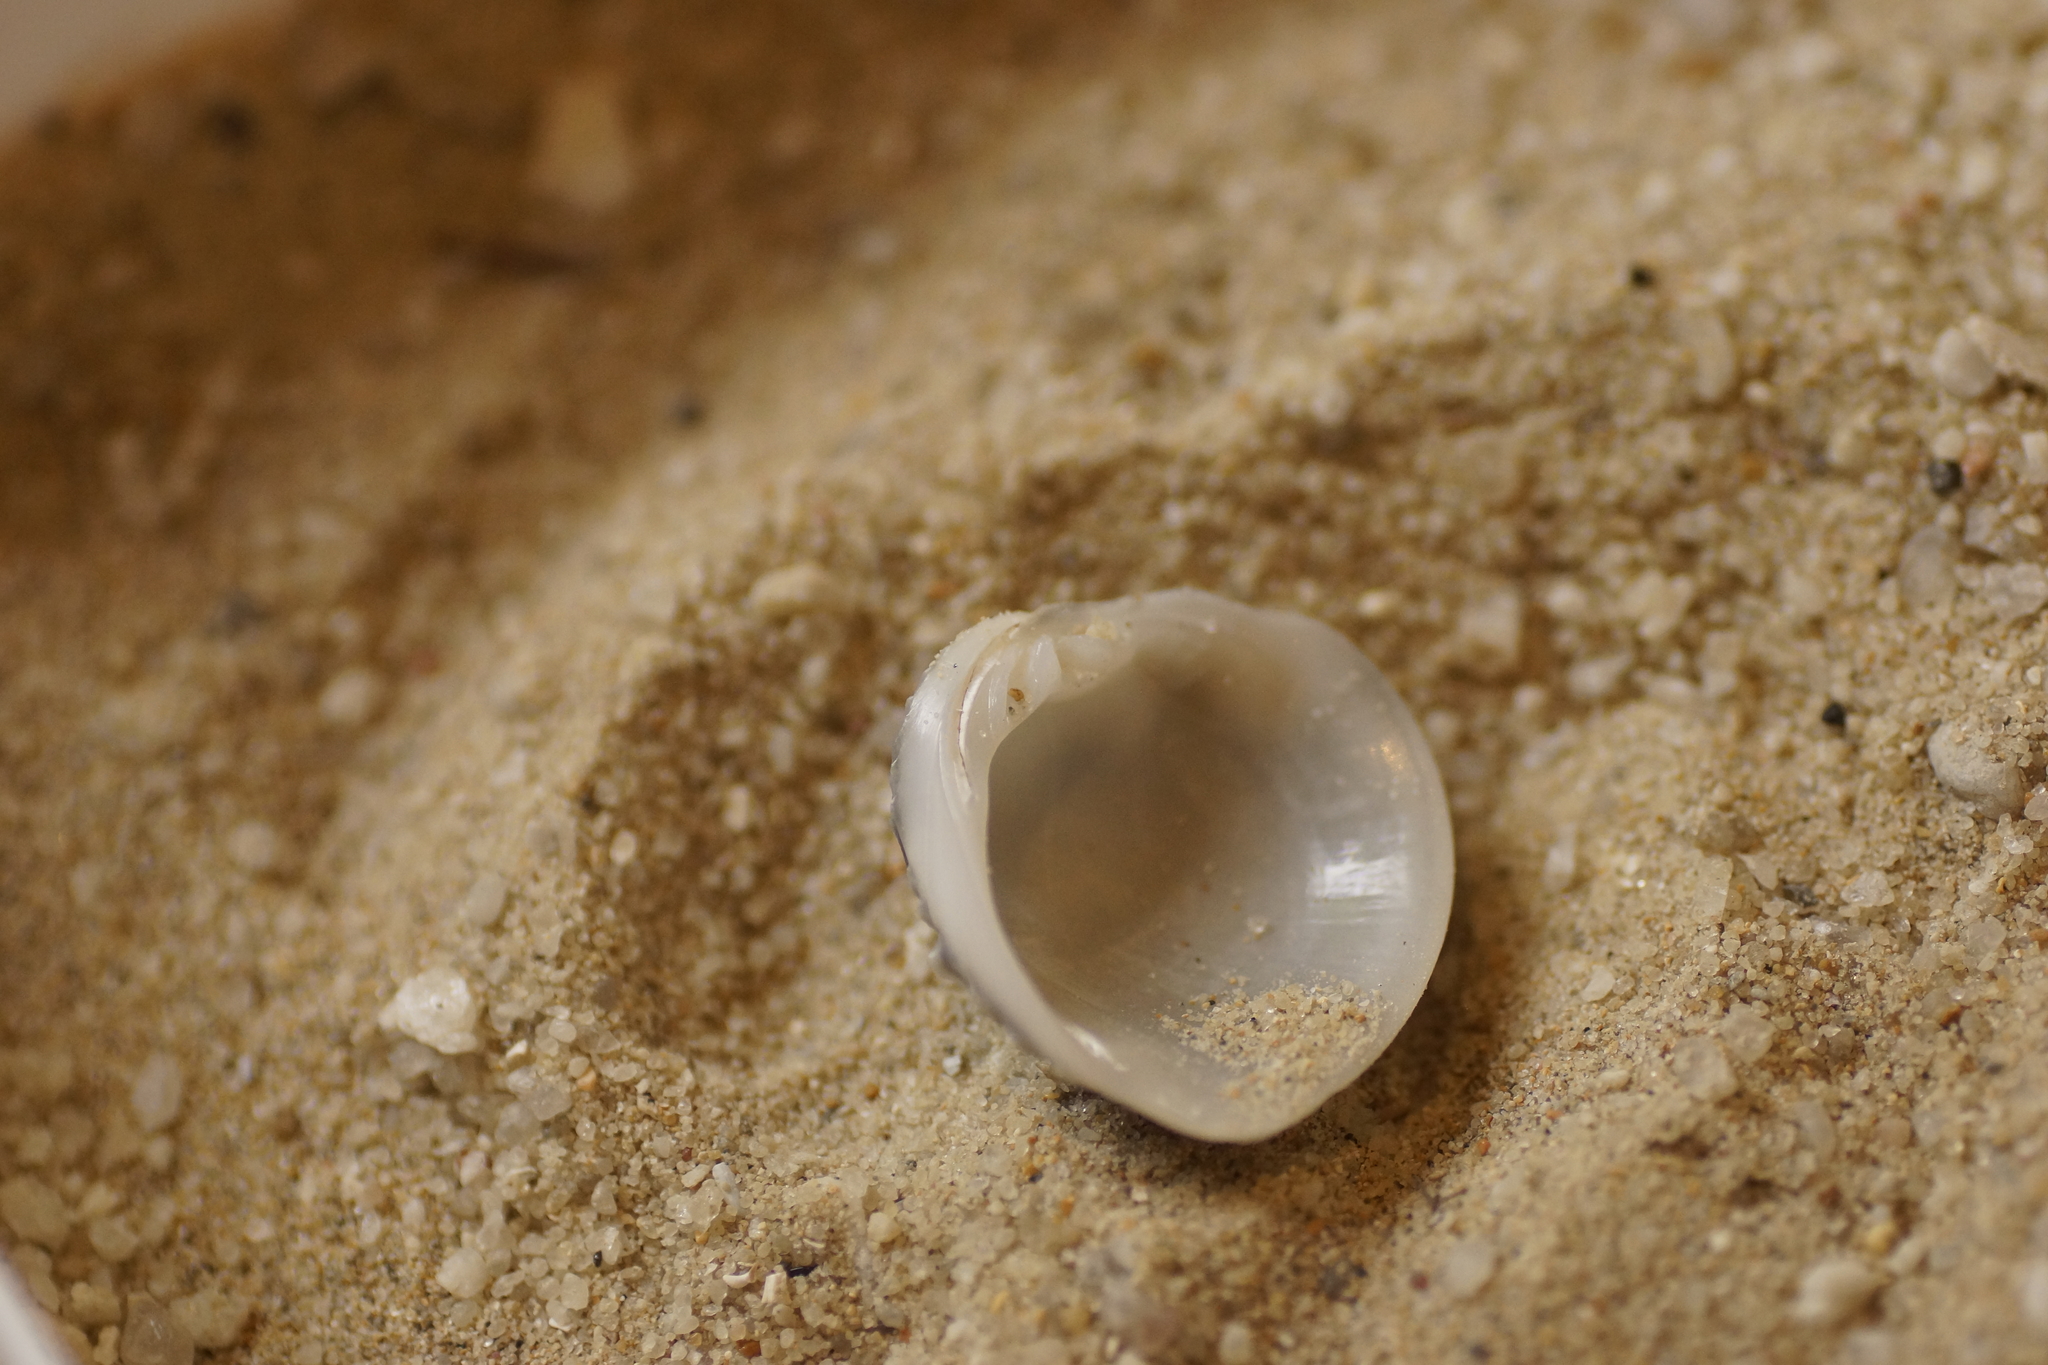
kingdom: Animalia
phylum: Mollusca
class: Bivalvia
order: Venerida
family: Veneridae
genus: Placamen
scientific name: Placamen placidum
